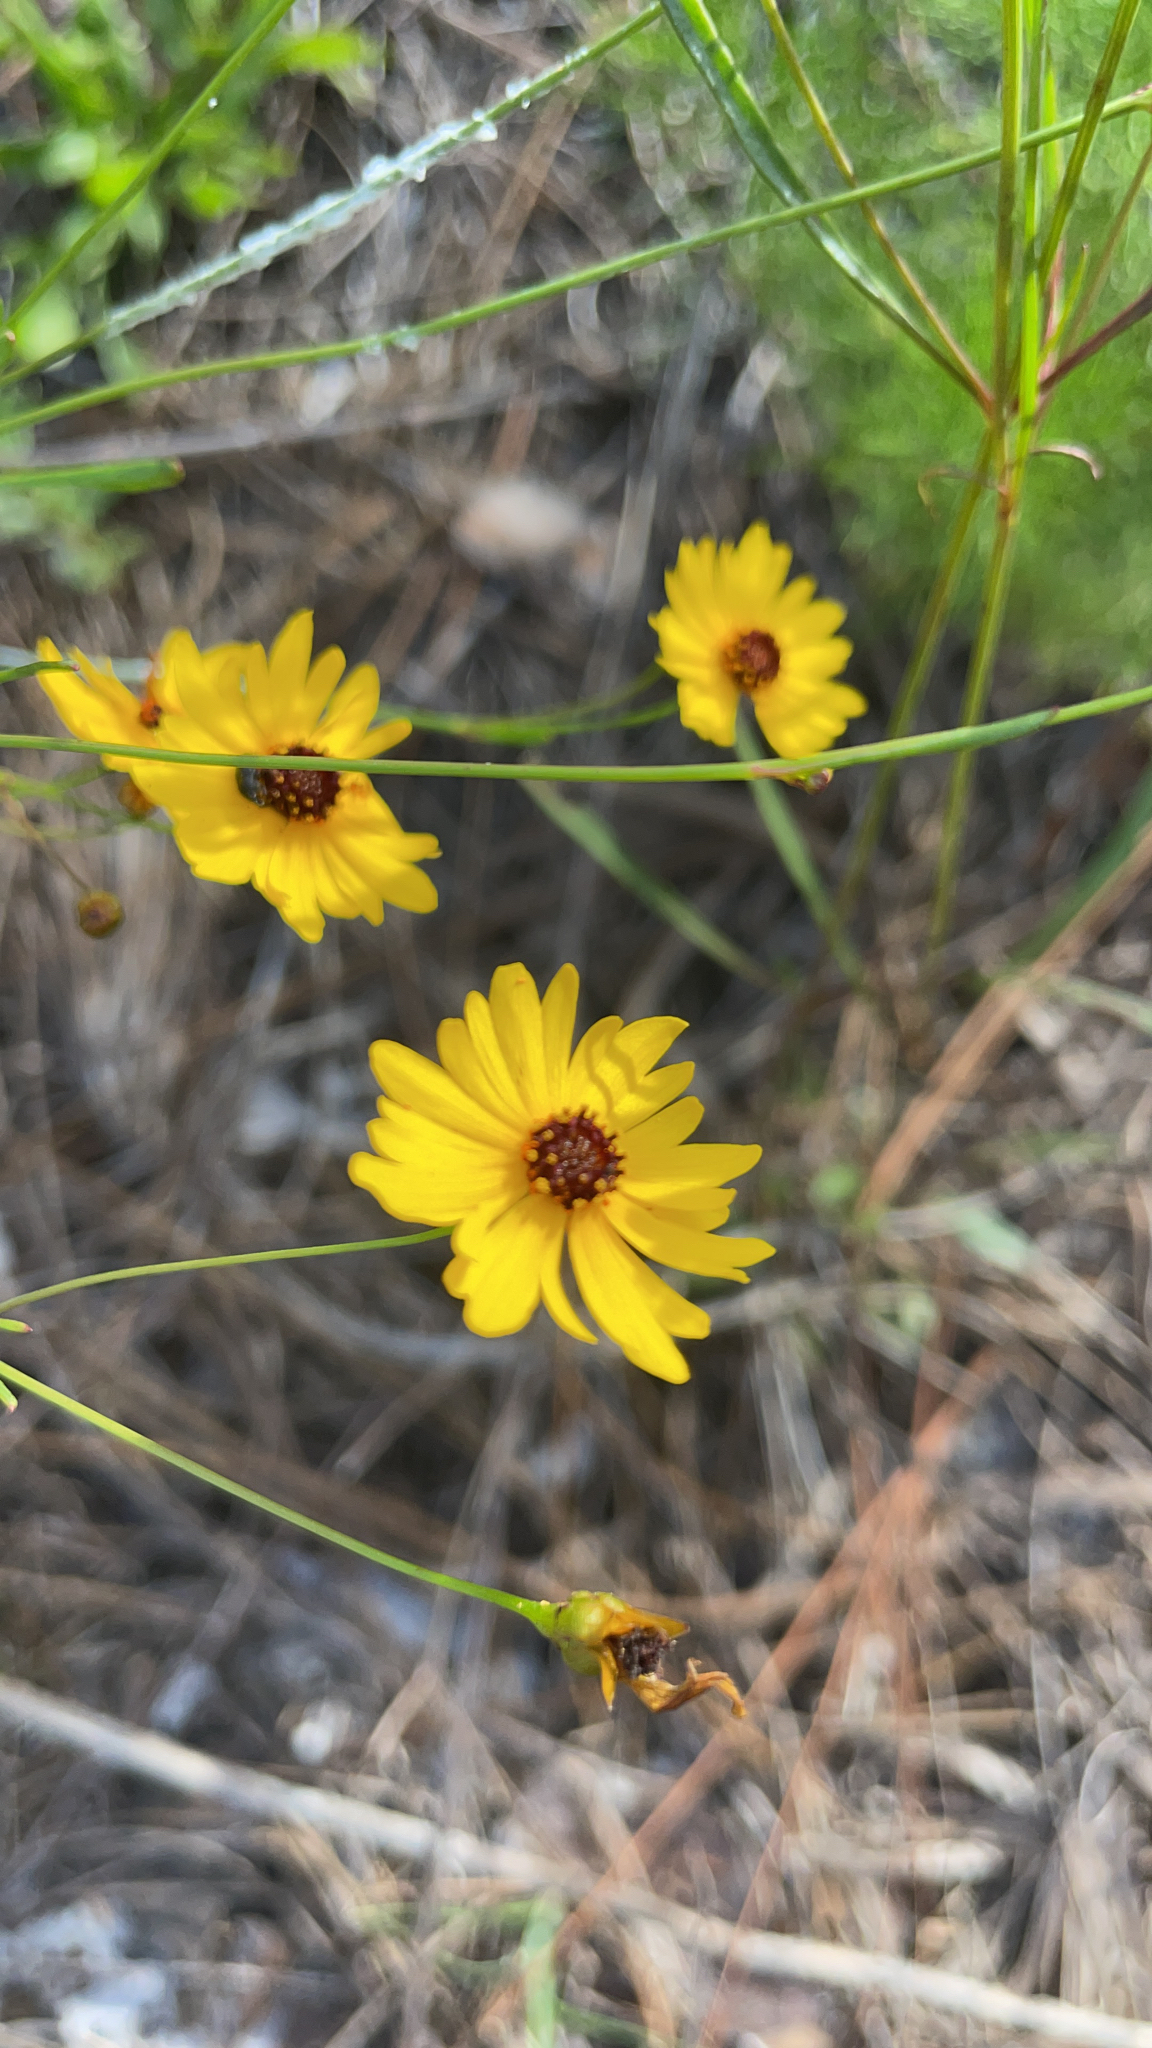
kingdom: Plantae
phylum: Tracheophyta
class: Magnoliopsida
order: Asterales
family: Asteraceae
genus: Coreopsis
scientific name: Coreopsis leavenworthii
